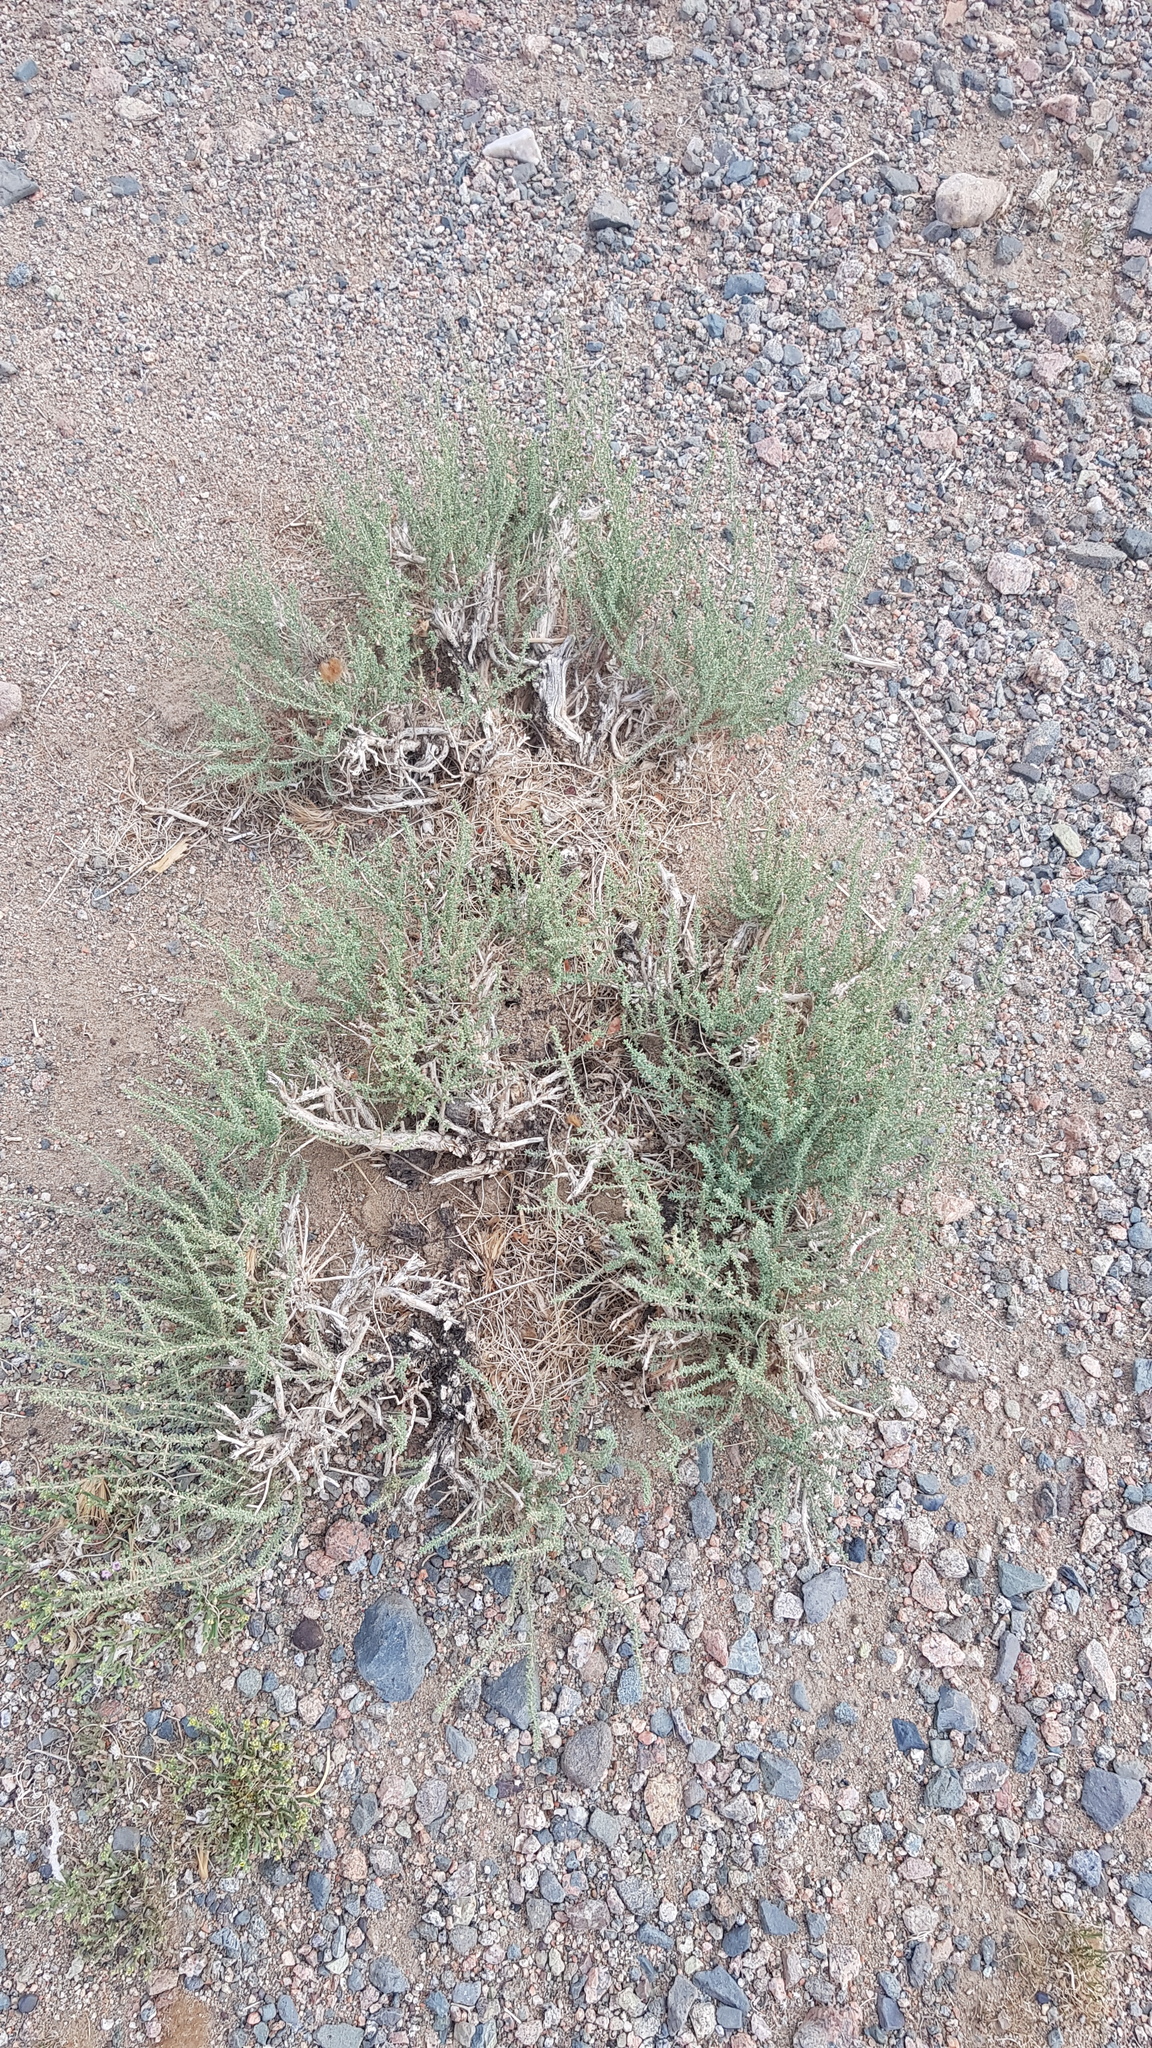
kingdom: Plantae
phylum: Tracheophyta
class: Magnoliopsida
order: Caryophyllales
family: Tamaricaceae
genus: Reaumuria
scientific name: Reaumuria songarica
